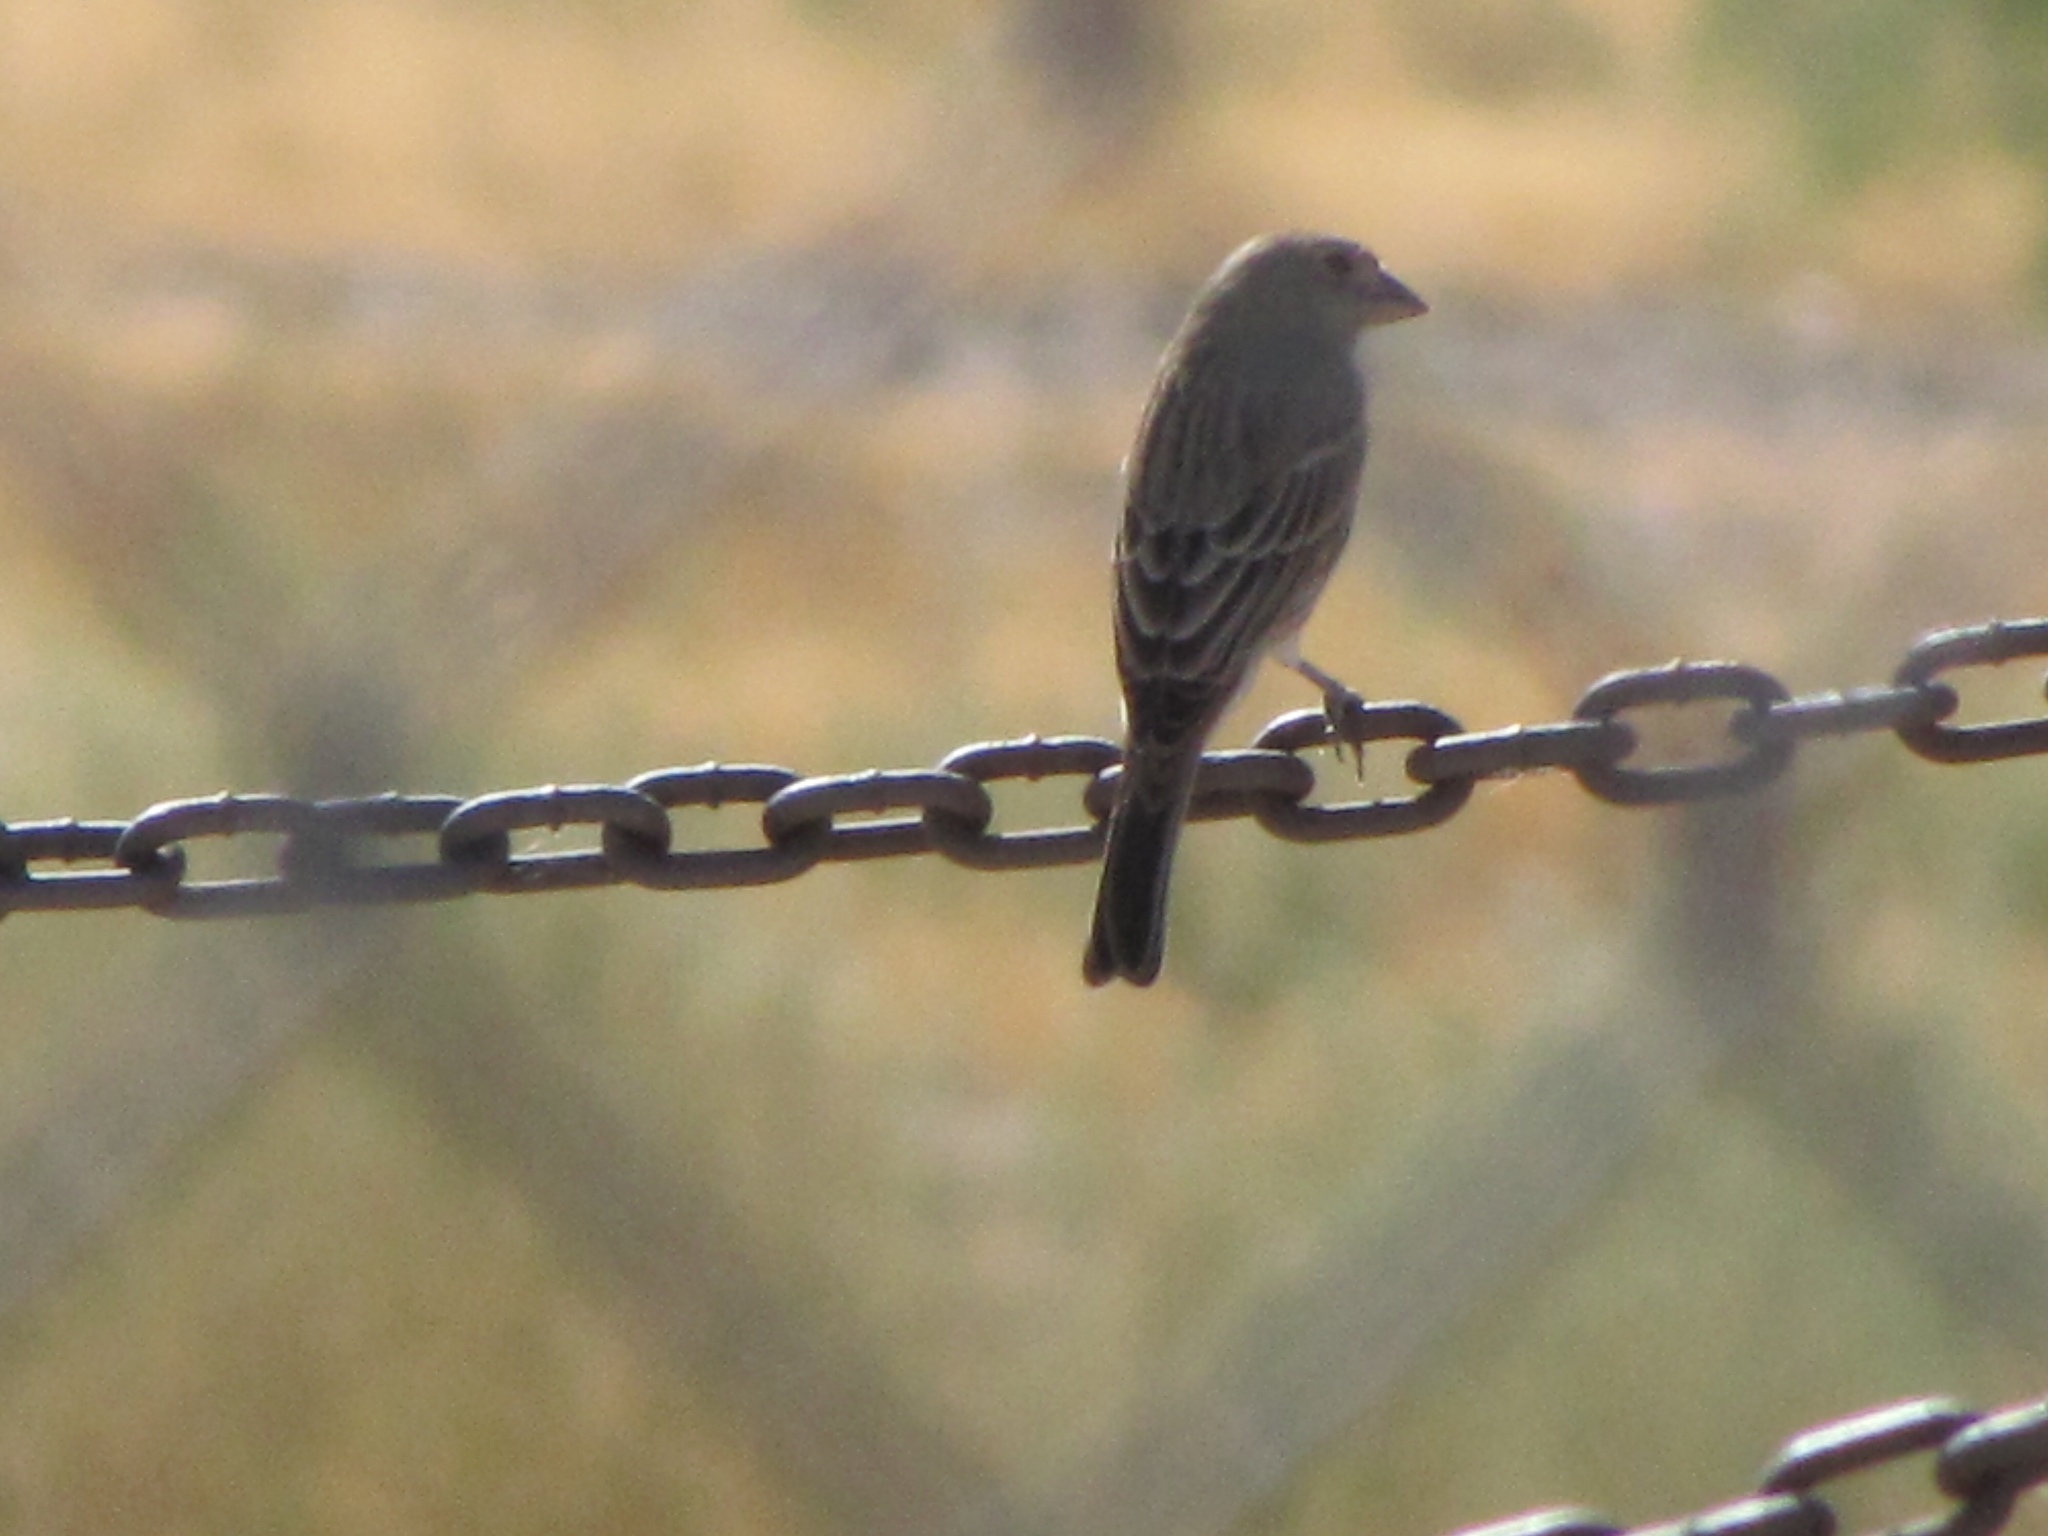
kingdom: Animalia
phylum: Chordata
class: Aves
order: Passeriformes
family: Fringillidae
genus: Haemorhous
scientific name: Haemorhous mexicanus
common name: House finch
